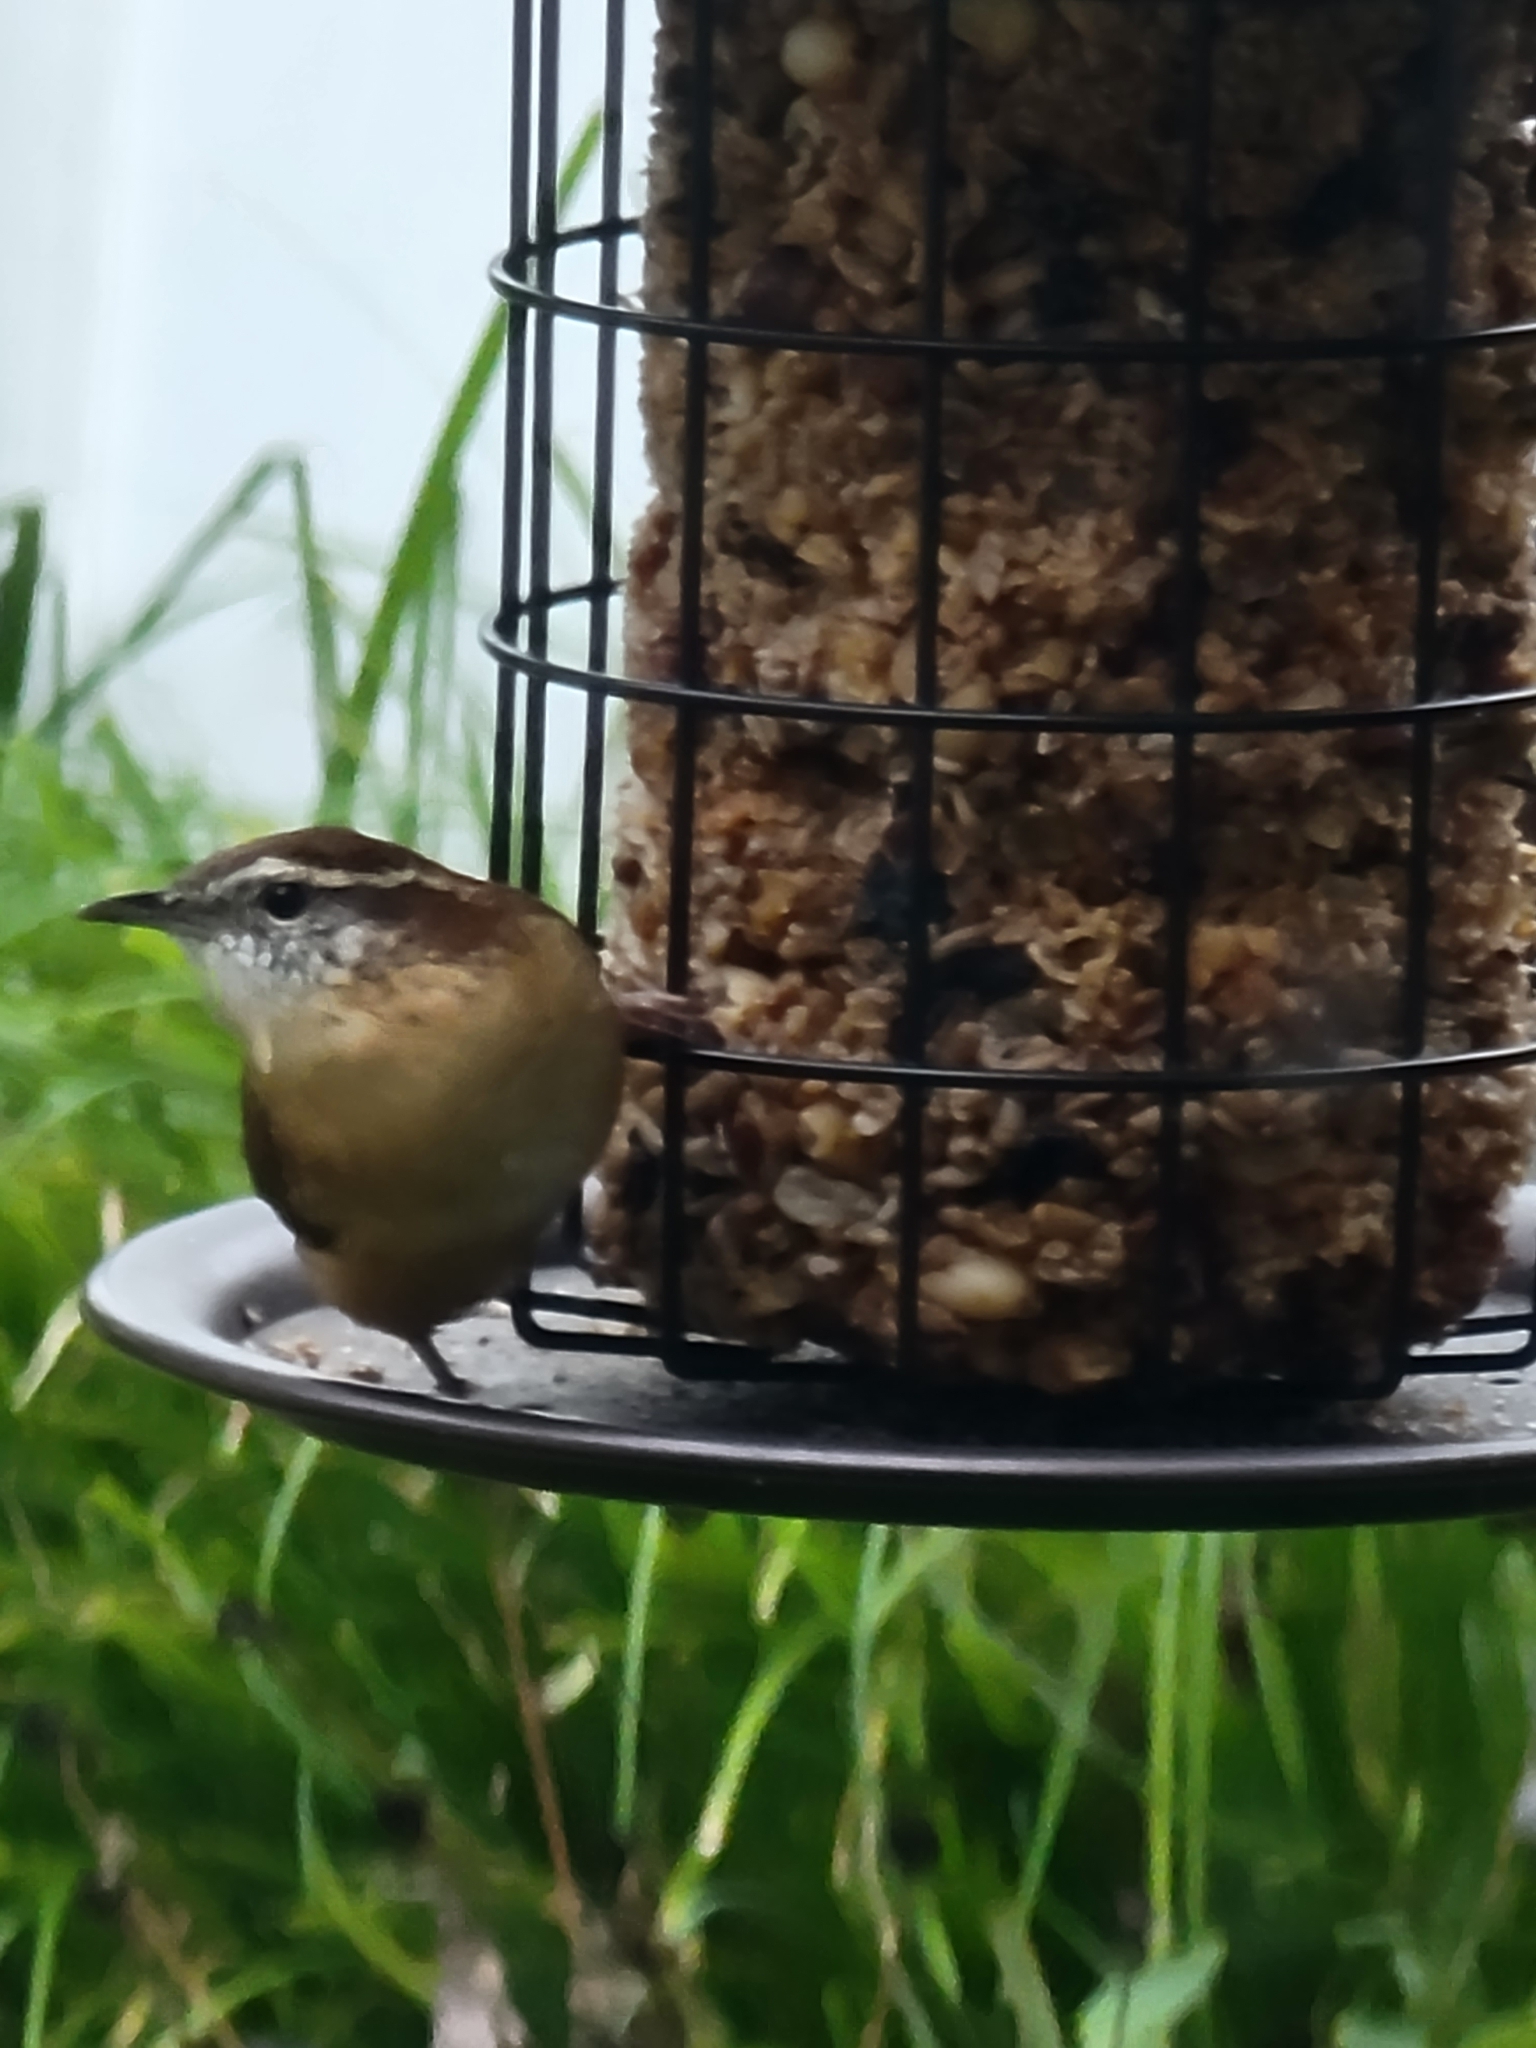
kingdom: Animalia
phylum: Chordata
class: Aves
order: Passeriformes
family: Troglodytidae
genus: Thryothorus
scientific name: Thryothorus ludovicianus
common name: Carolina wren
